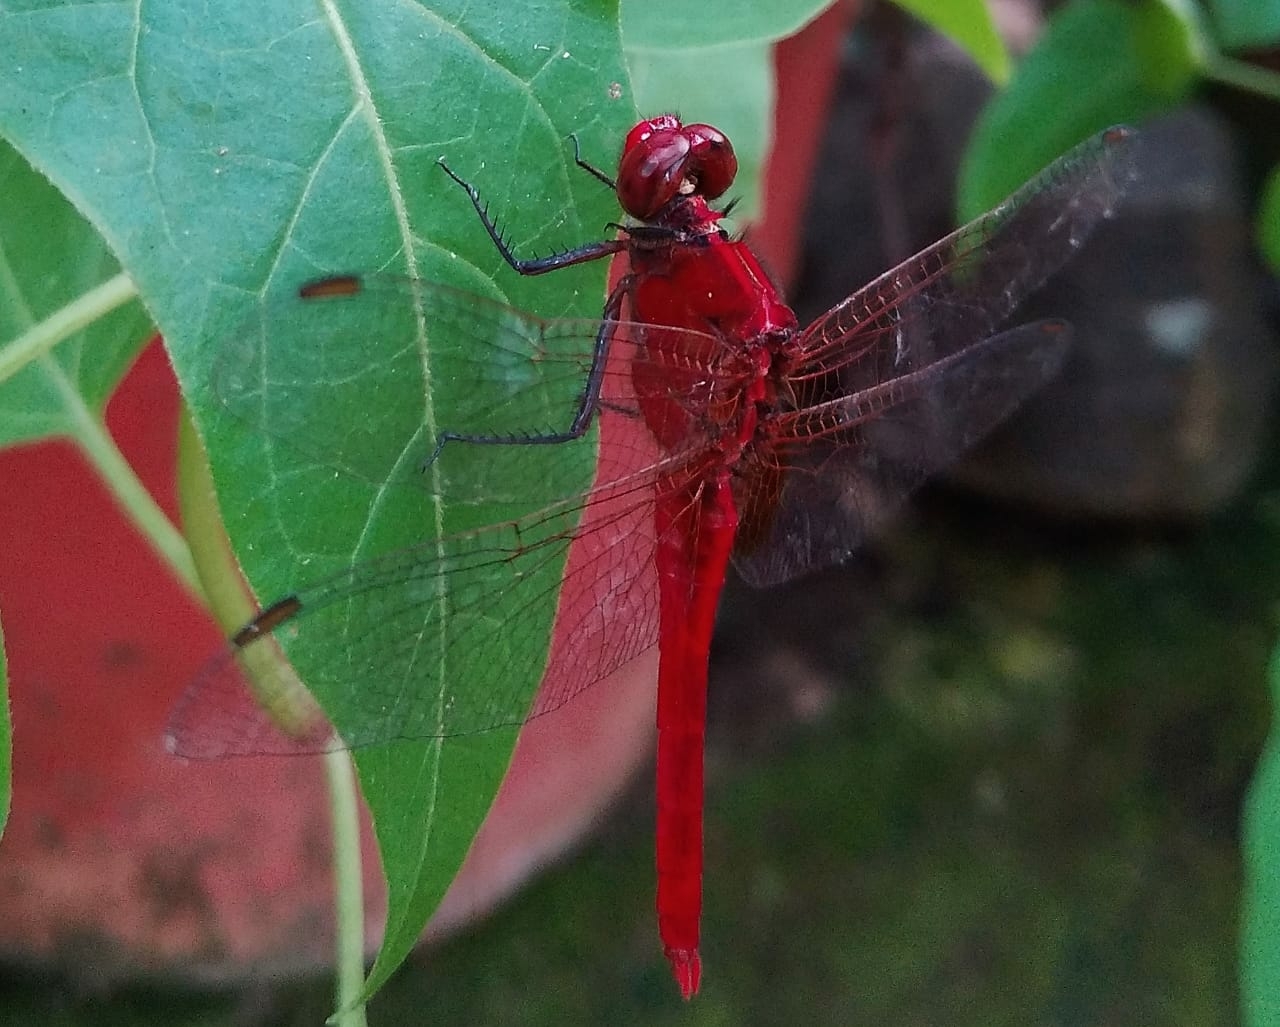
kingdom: Animalia
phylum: Arthropoda
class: Insecta
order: Odonata
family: Libellulidae
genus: Rhodothemis
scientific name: Rhodothemis rufa
